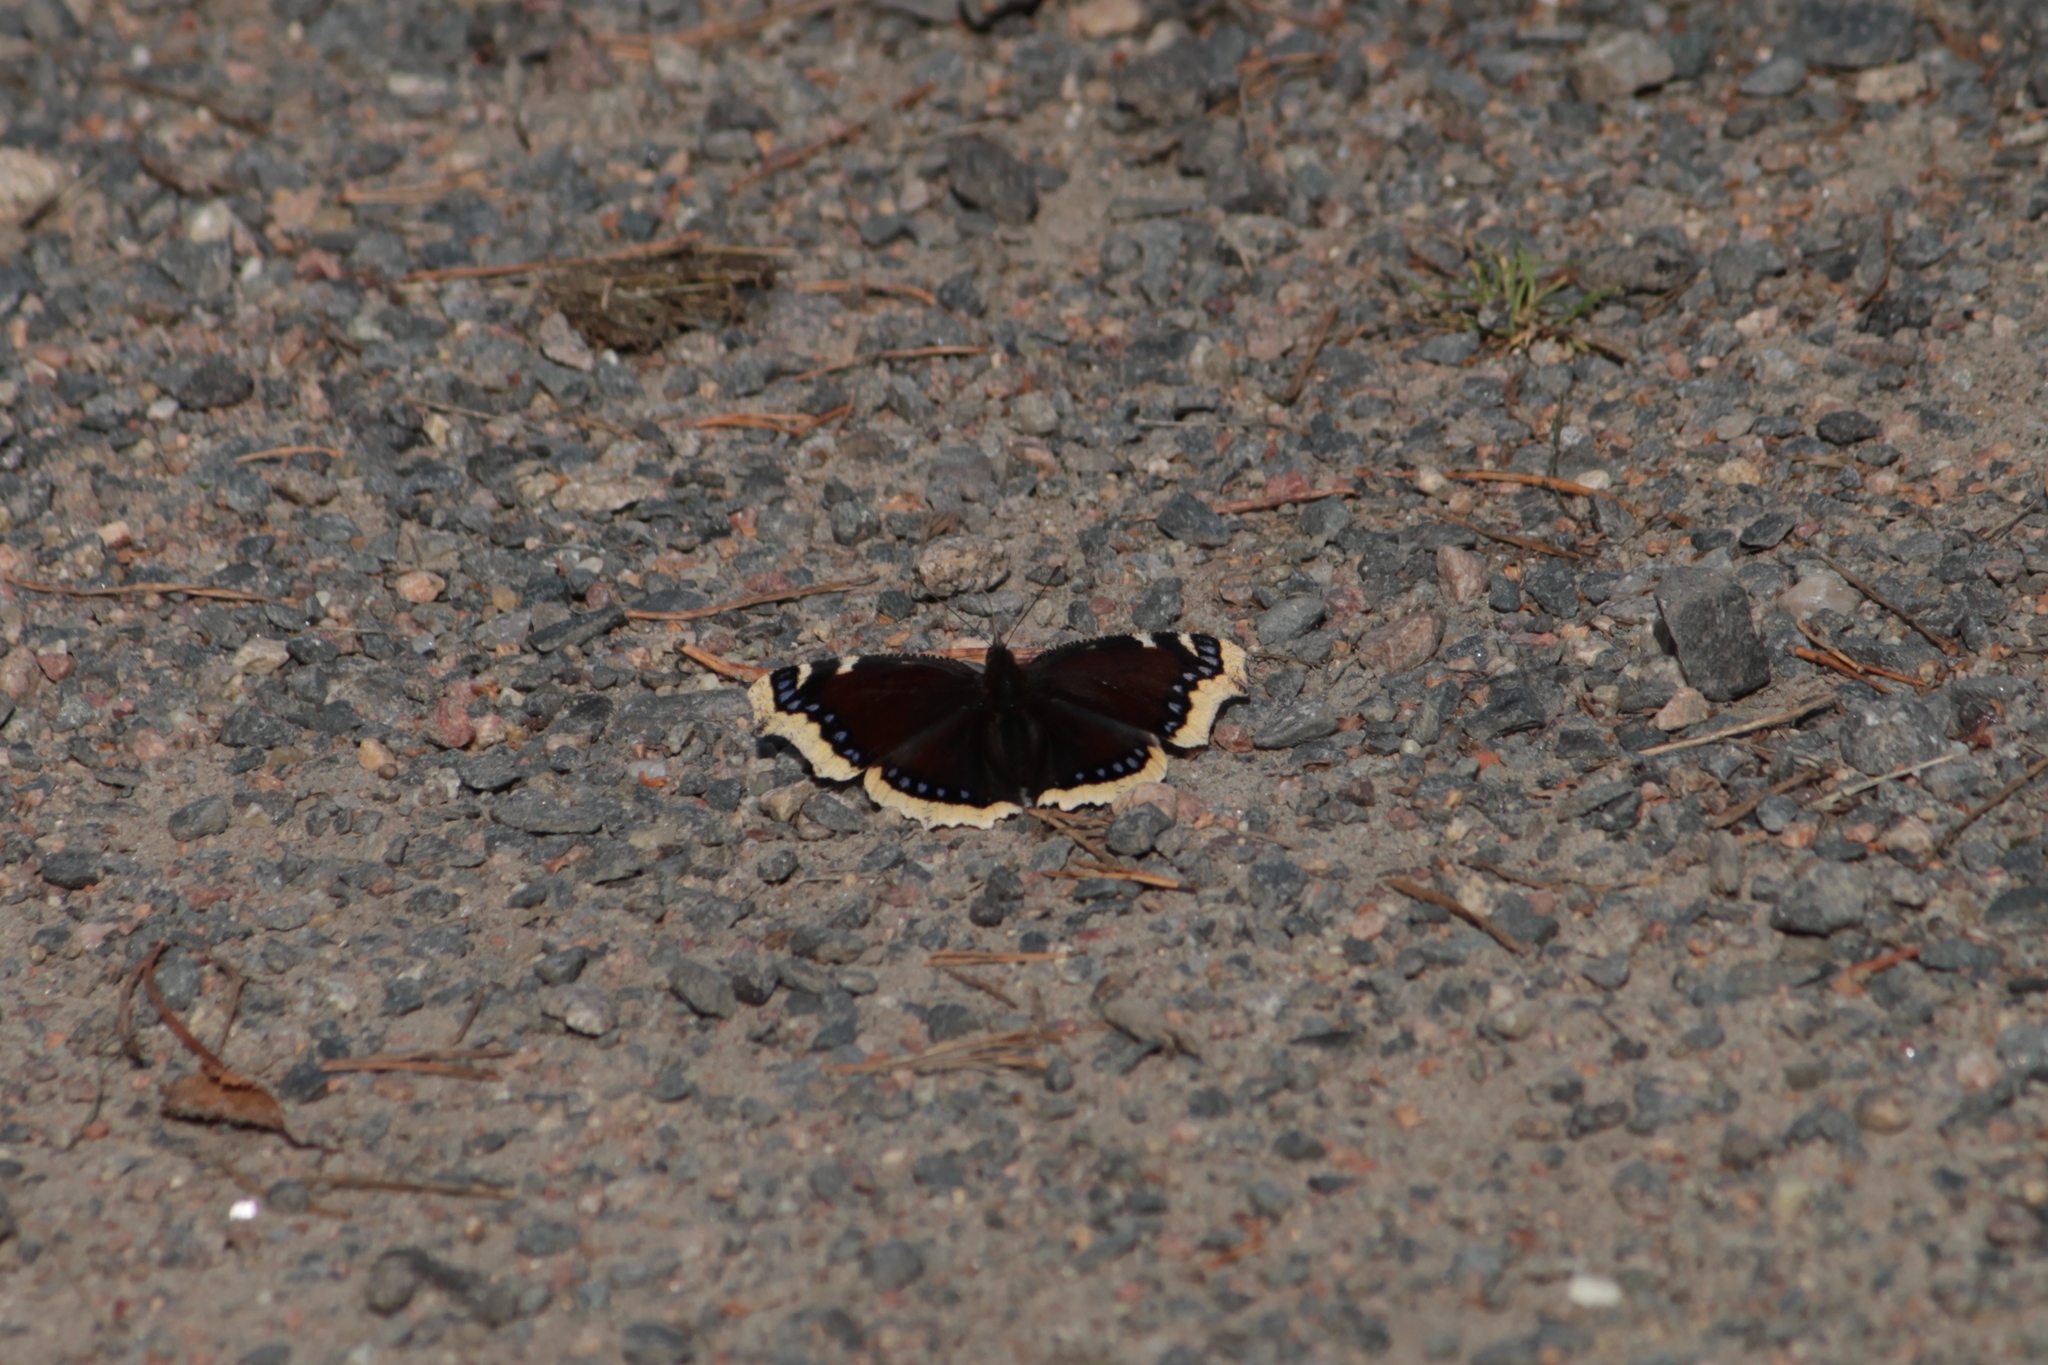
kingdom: Animalia
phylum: Arthropoda
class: Insecta
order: Lepidoptera
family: Nymphalidae
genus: Nymphalis
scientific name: Nymphalis antiopa
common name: Camberwell beauty
